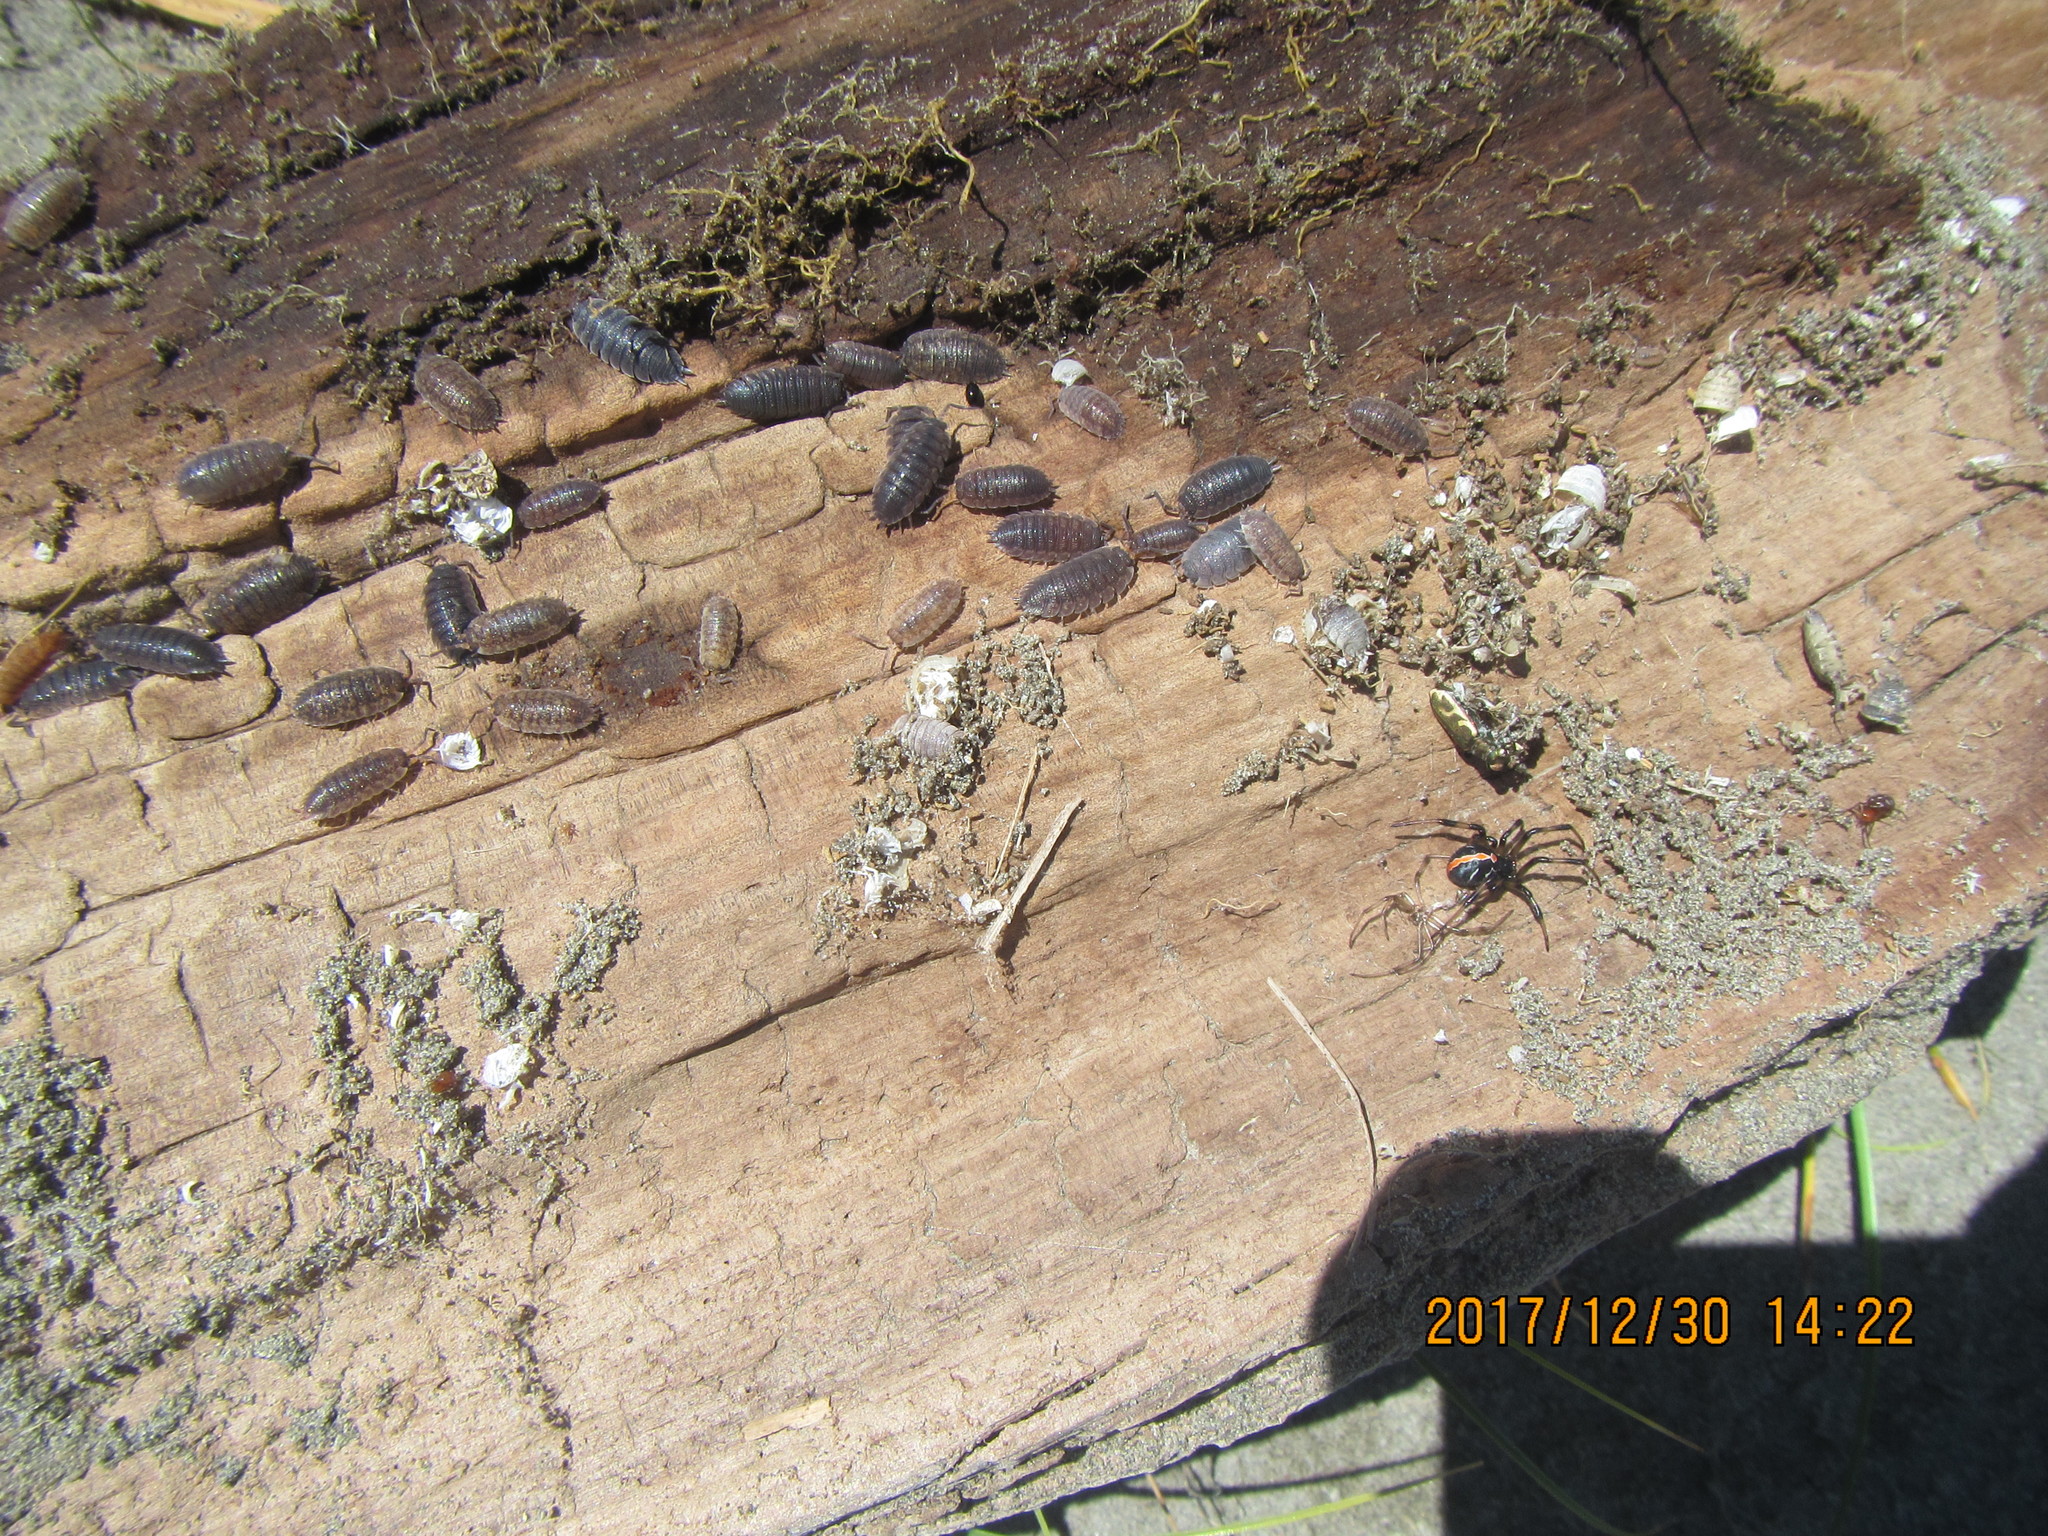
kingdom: Animalia
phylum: Arthropoda
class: Arachnida
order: Araneae
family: Theridiidae
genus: Latrodectus
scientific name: Latrodectus katipo
